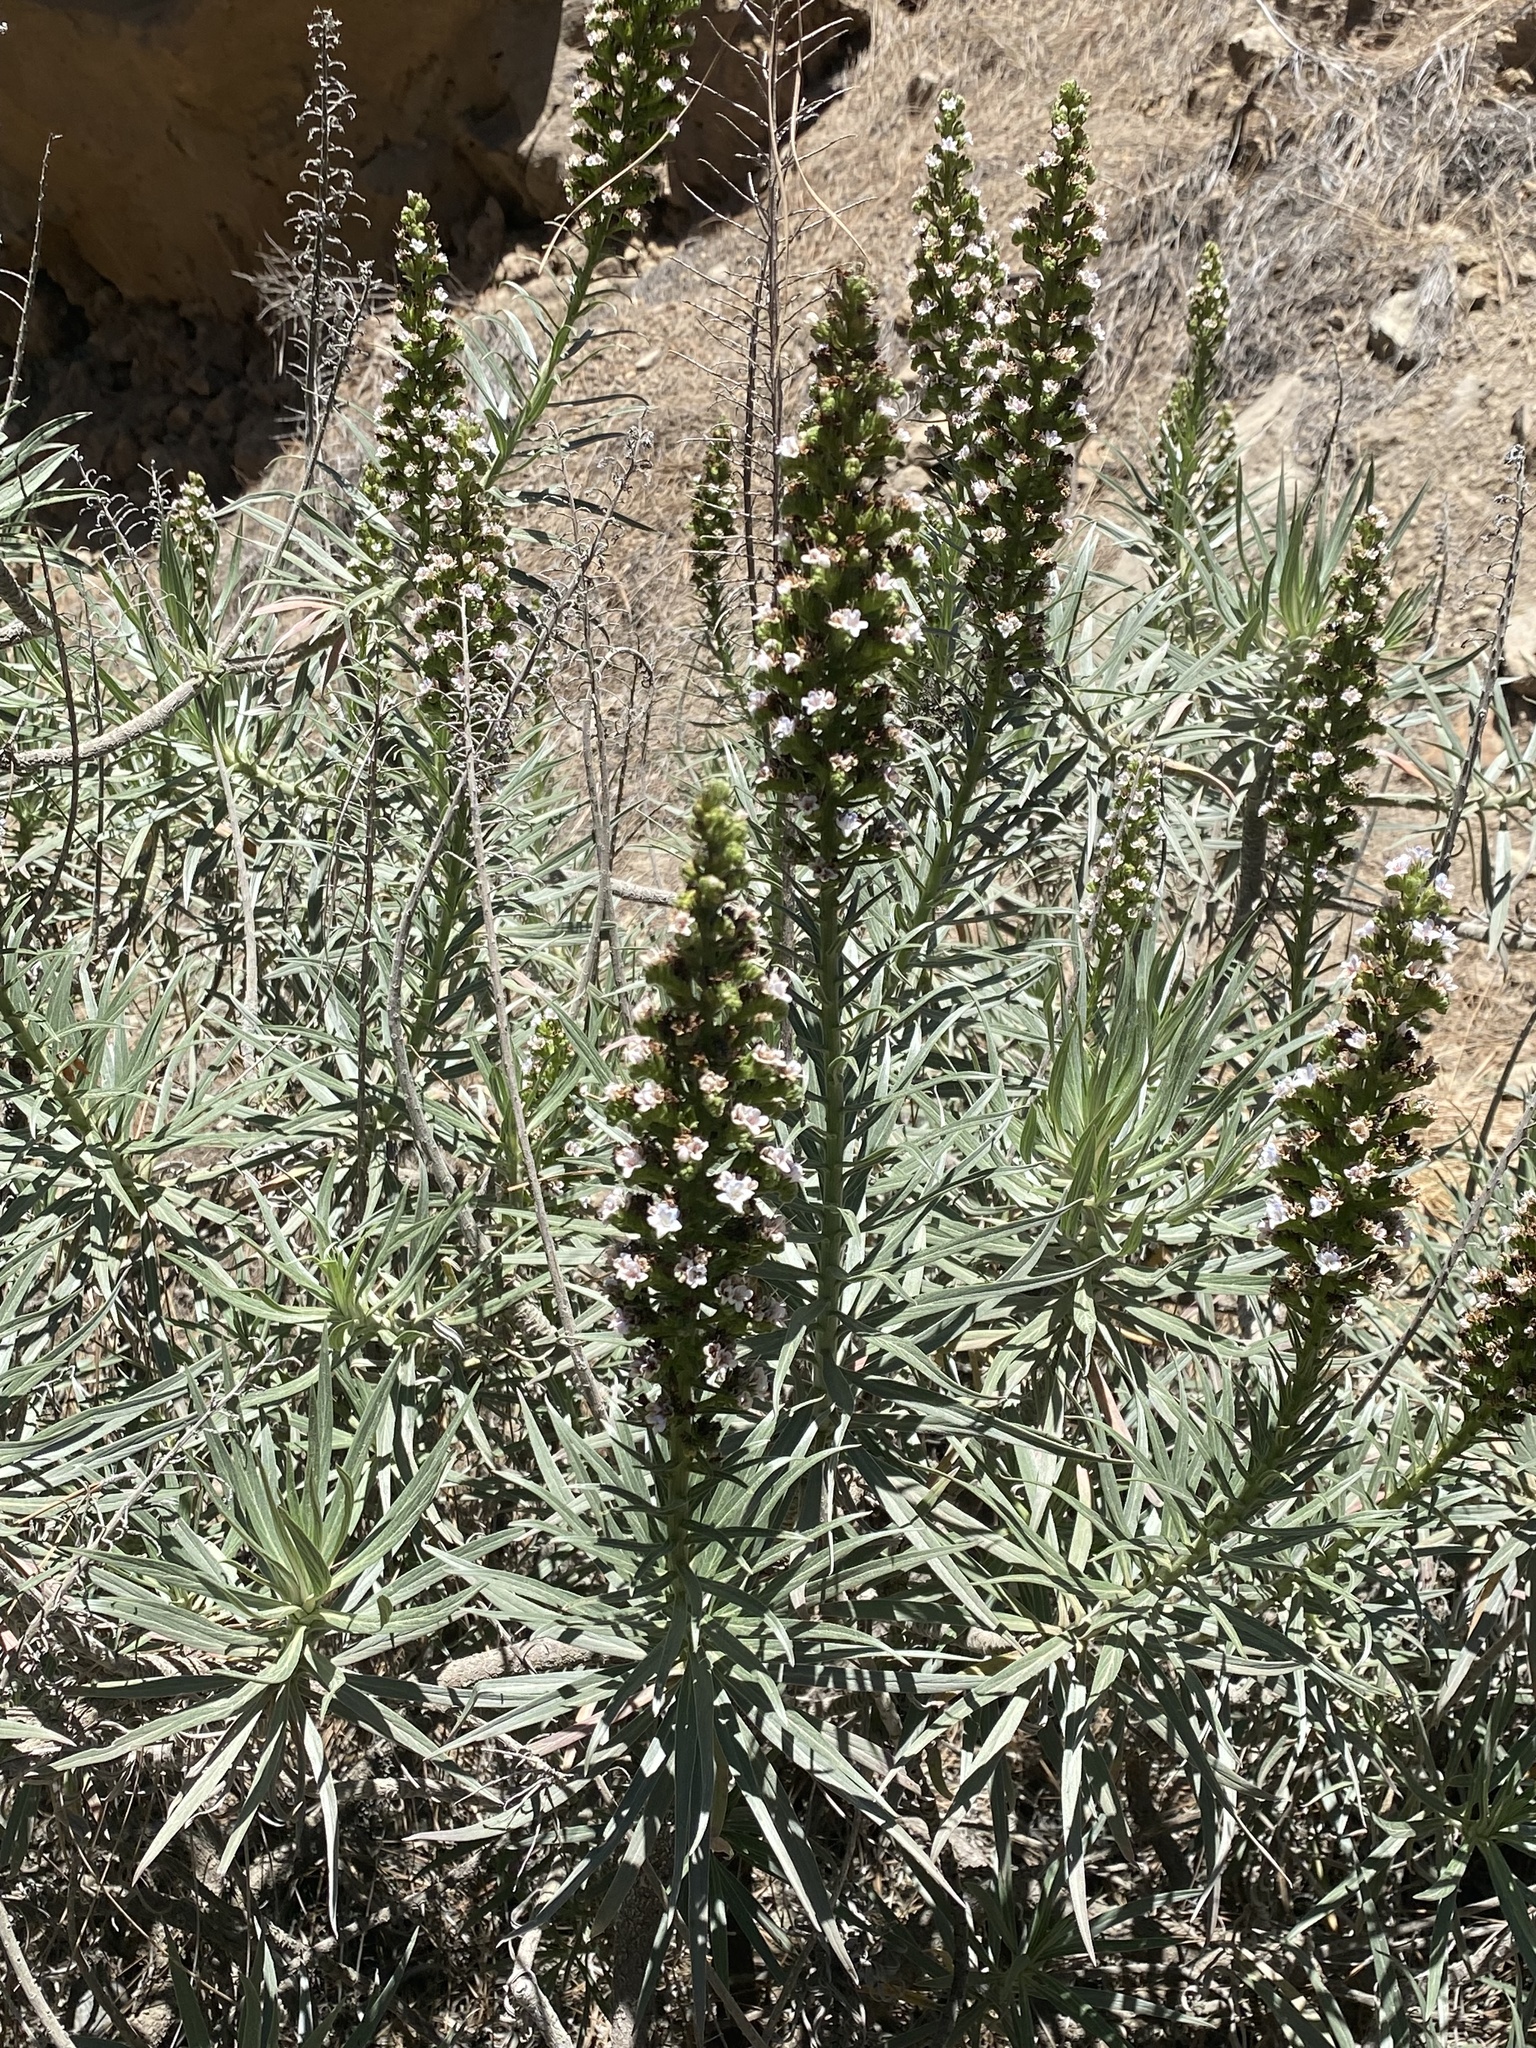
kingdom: Plantae
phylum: Tracheophyta
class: Magnoliopsida
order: Boraginales
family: Boraginaceae
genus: Echium
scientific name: Echium virescens
